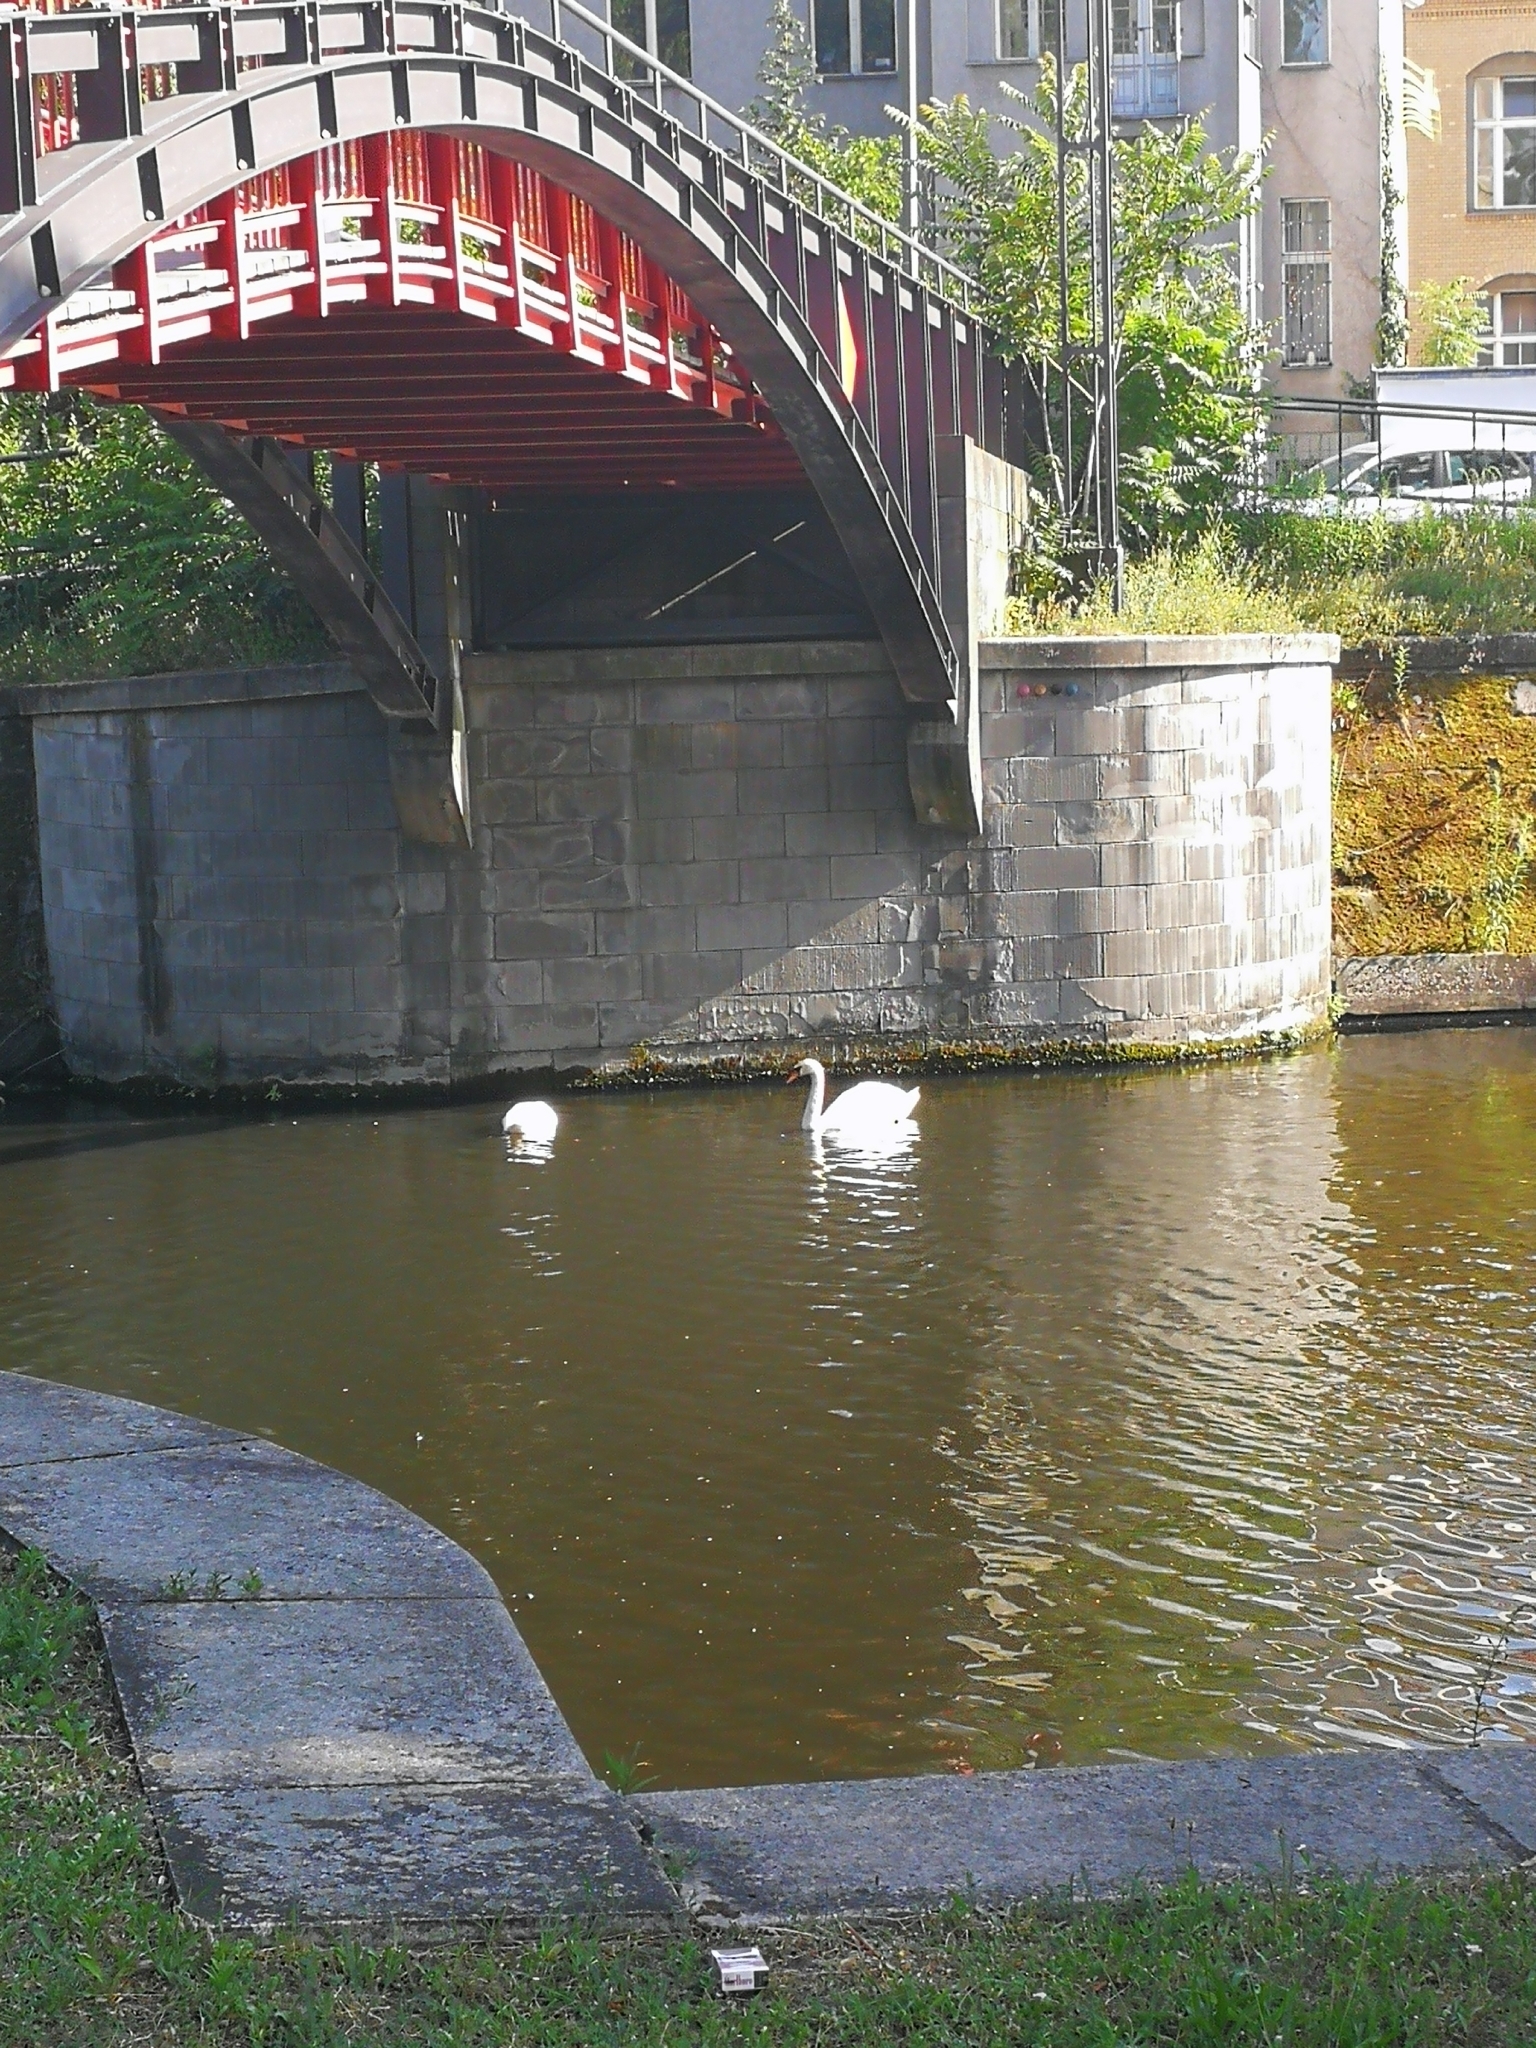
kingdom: Animalia
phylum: Chordata
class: Aves
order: Anseriformes
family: Anatidae
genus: Cygnus
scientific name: Cygnus olor
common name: Mute swan
